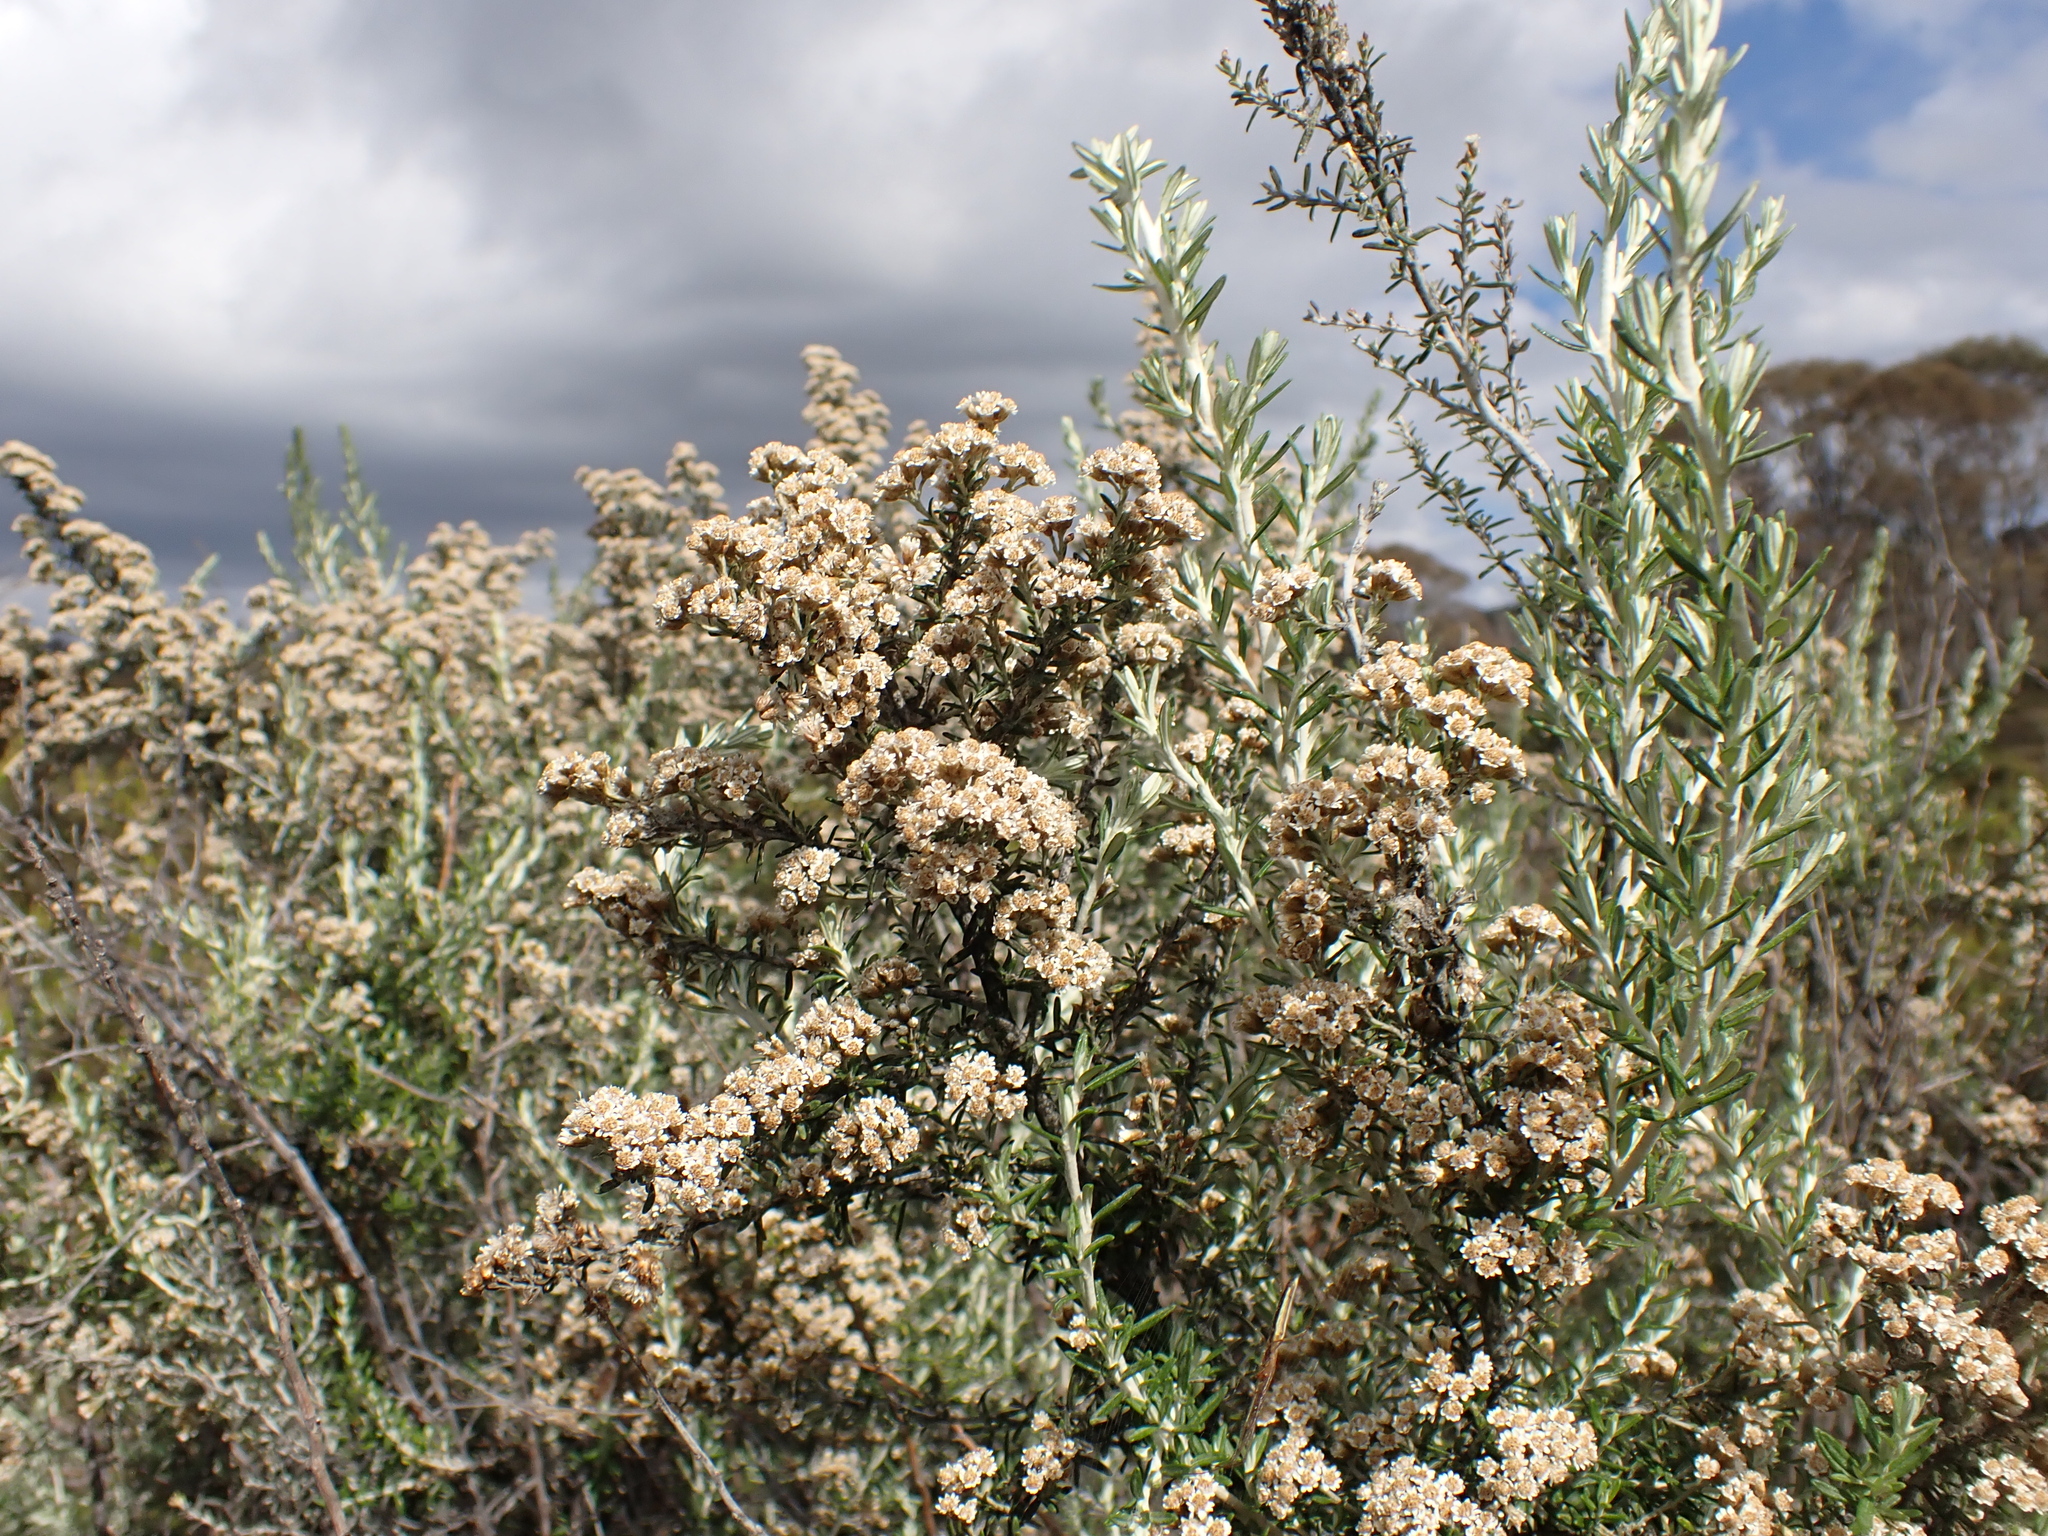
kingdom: Plantae
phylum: Tracheophyta
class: Magnoliopsida
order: Asterales
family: Asteraceae
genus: Ozothamnus
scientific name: Ozothamnus secundiflorus
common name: Cascade everlasting
